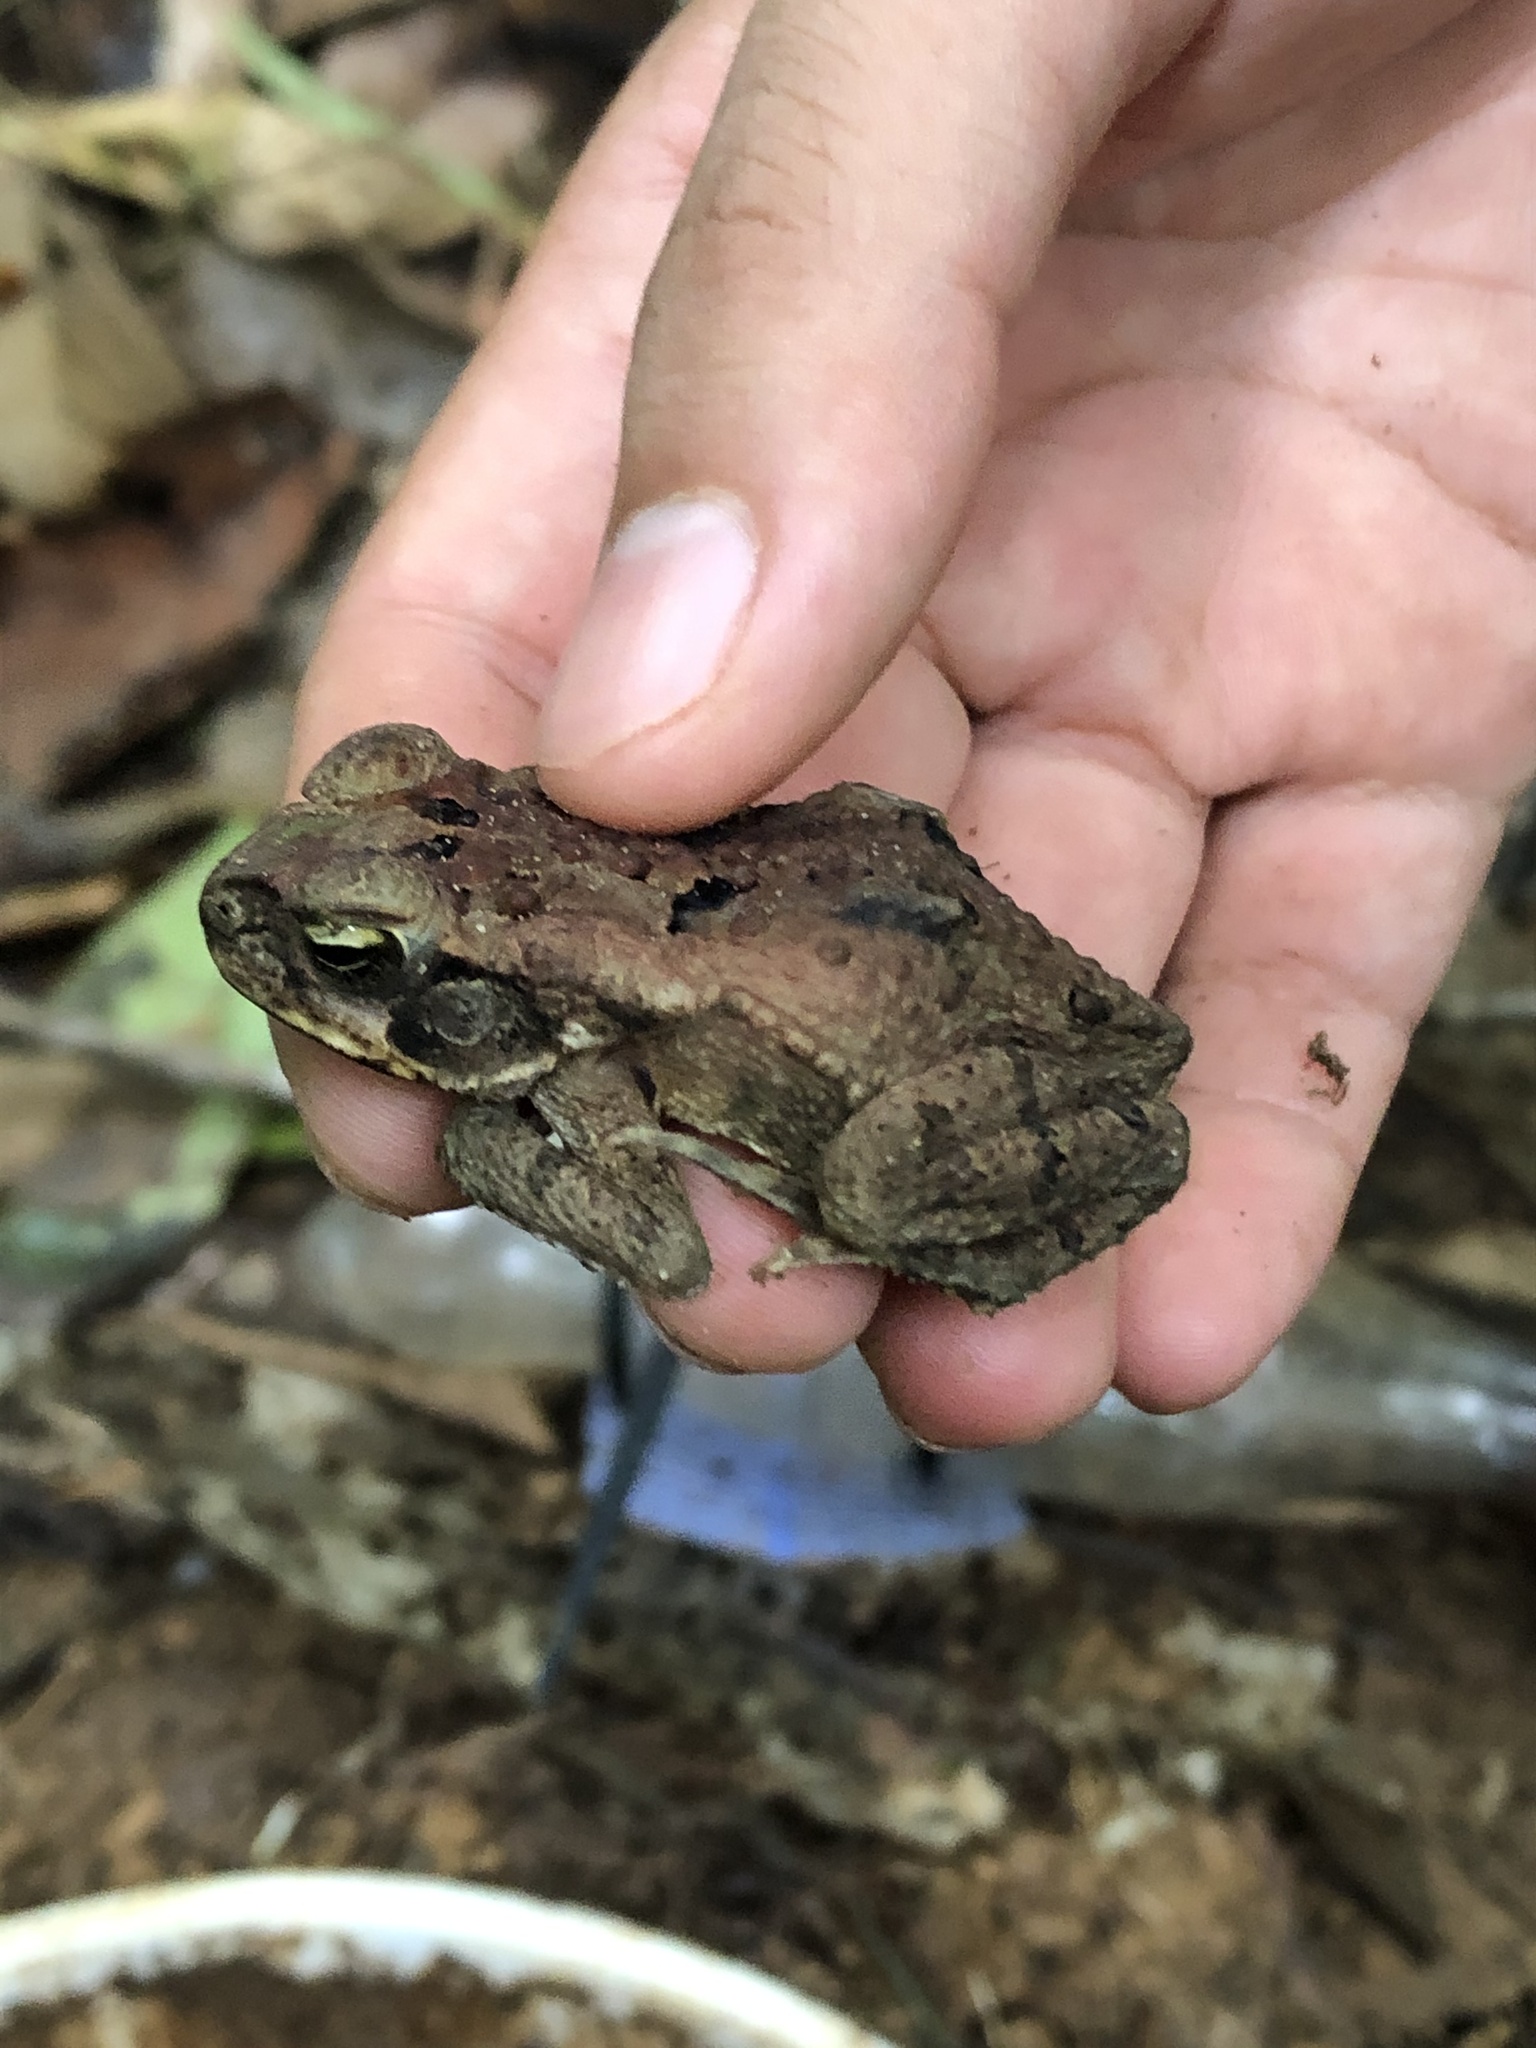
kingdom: Animalia
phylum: Chordata
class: Amphibia
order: Anura
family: Bufonidae
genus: Rhinella
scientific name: Rhinella marina
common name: Cane toad
